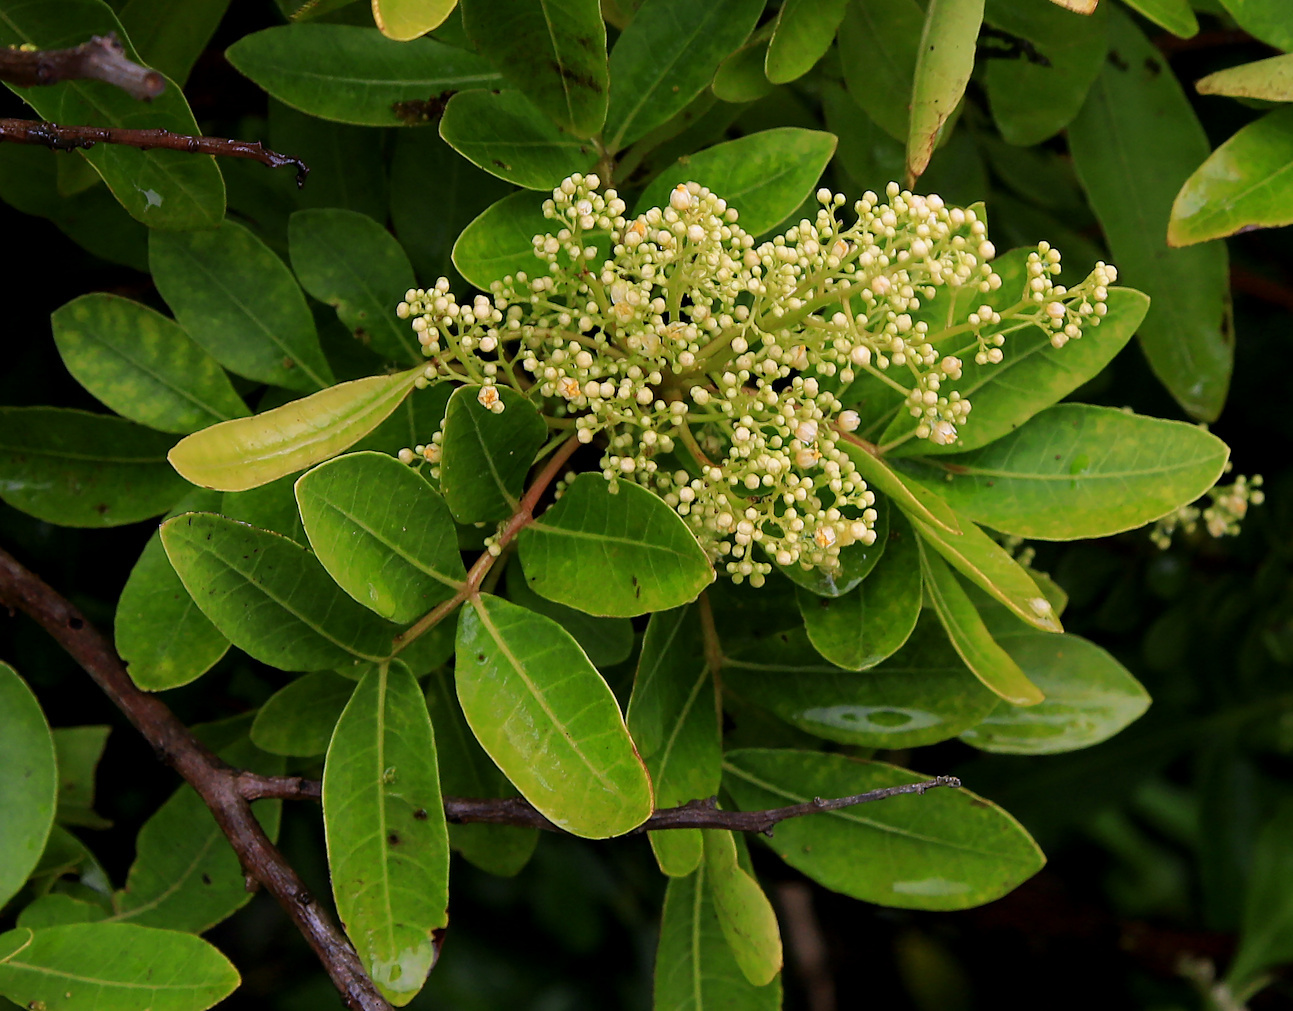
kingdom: Plantae
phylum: Tracheophyta
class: Magnoliopsida
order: Sapindales
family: Anacardiaceae
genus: Schinus
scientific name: Schinus terebinthifolia
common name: Brazilian peppertree
